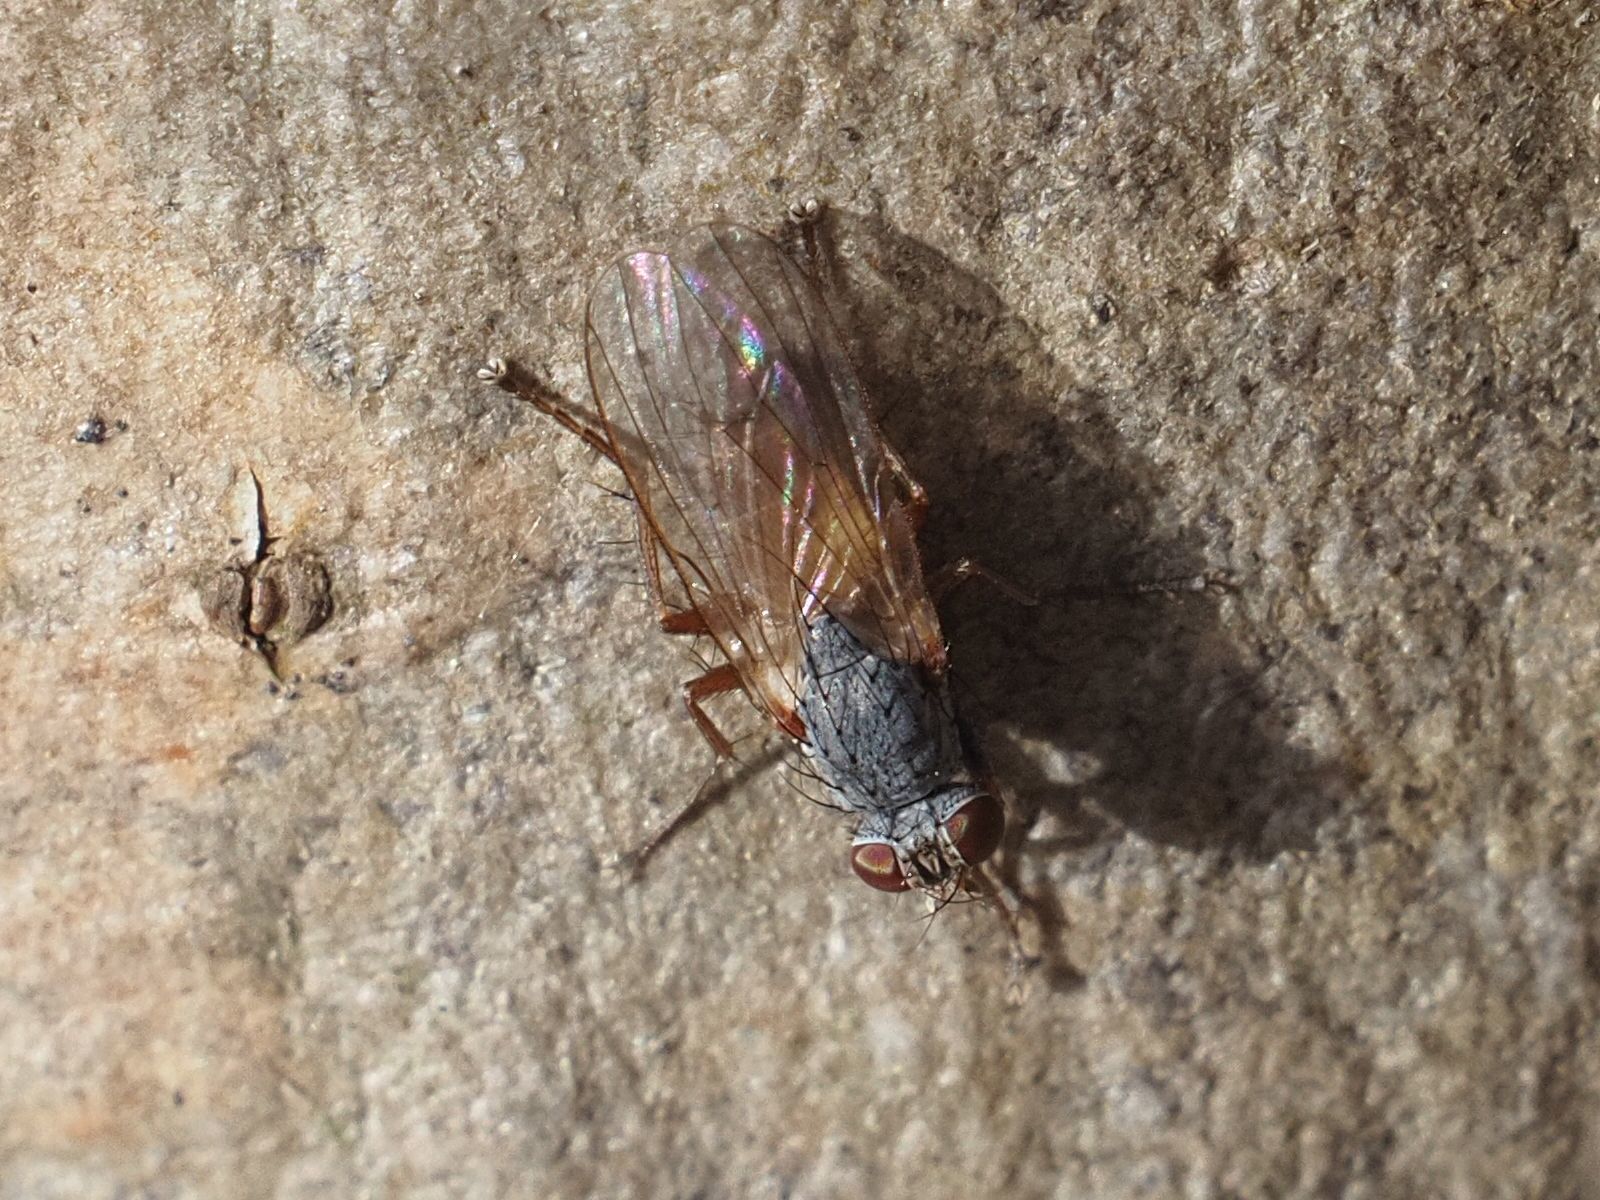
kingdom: Animalia
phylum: Arthropoda
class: Insecta
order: Diptera
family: Muscidae
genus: Lispocephala
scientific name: Lispocephala brachialis
